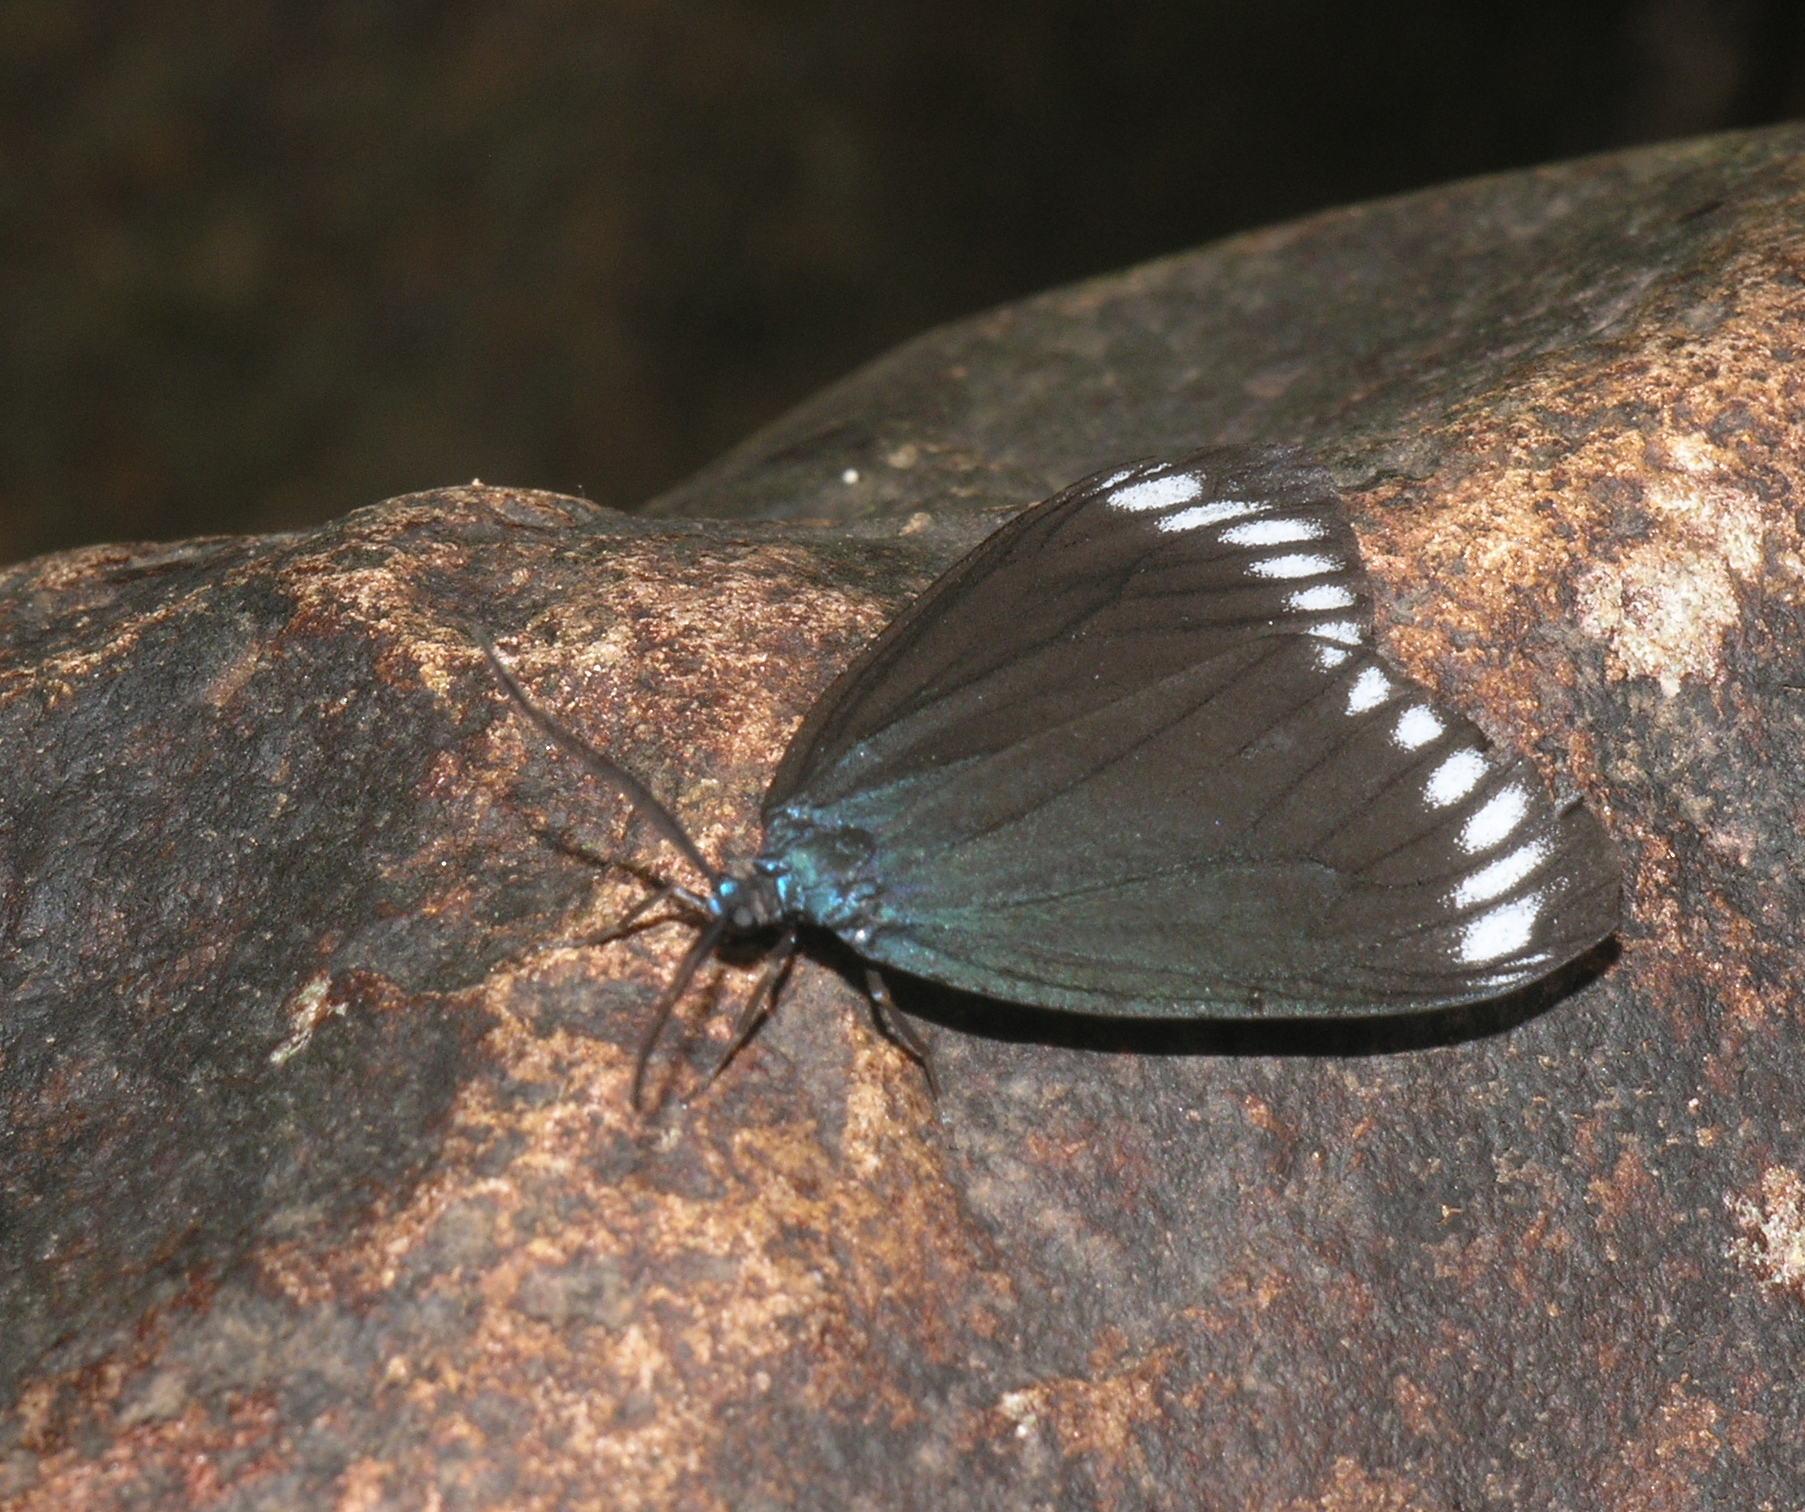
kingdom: Animalia
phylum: Arthropoda
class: Insecta
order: Lepidoptera
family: Zygaenidae
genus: Cyclosia
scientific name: Cyclosia panthona
